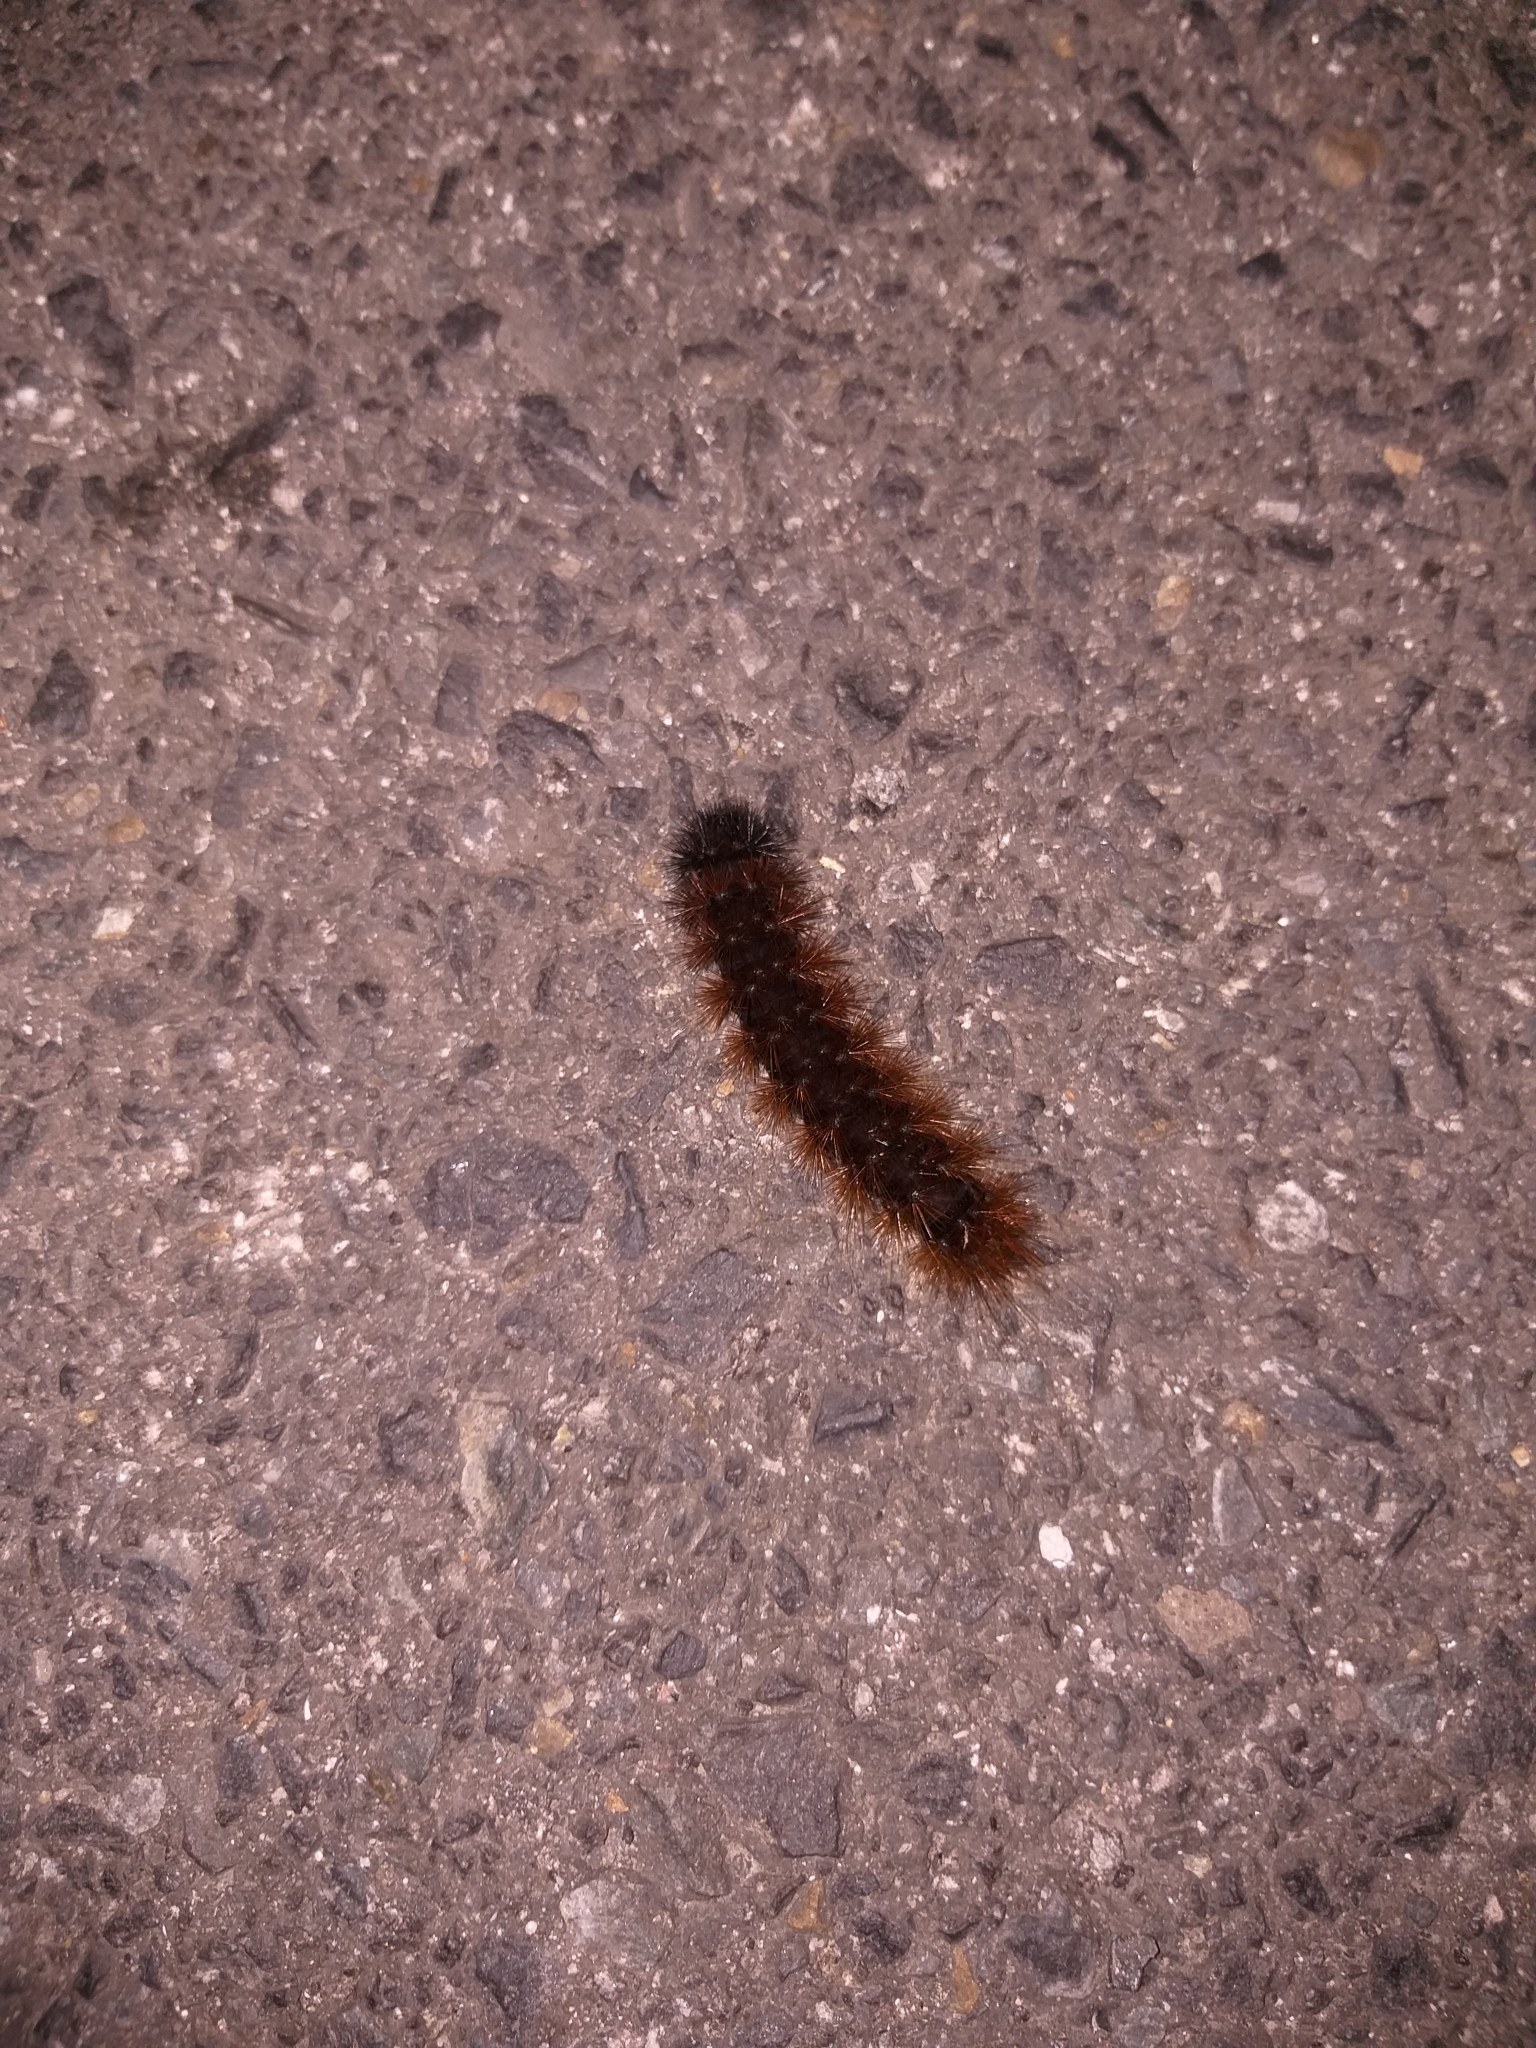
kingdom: Animalia
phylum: Arthropoda
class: Insecta
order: Lepidoptera
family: Erebidae
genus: Rhodogastria
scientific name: Rhodogastria amasis
